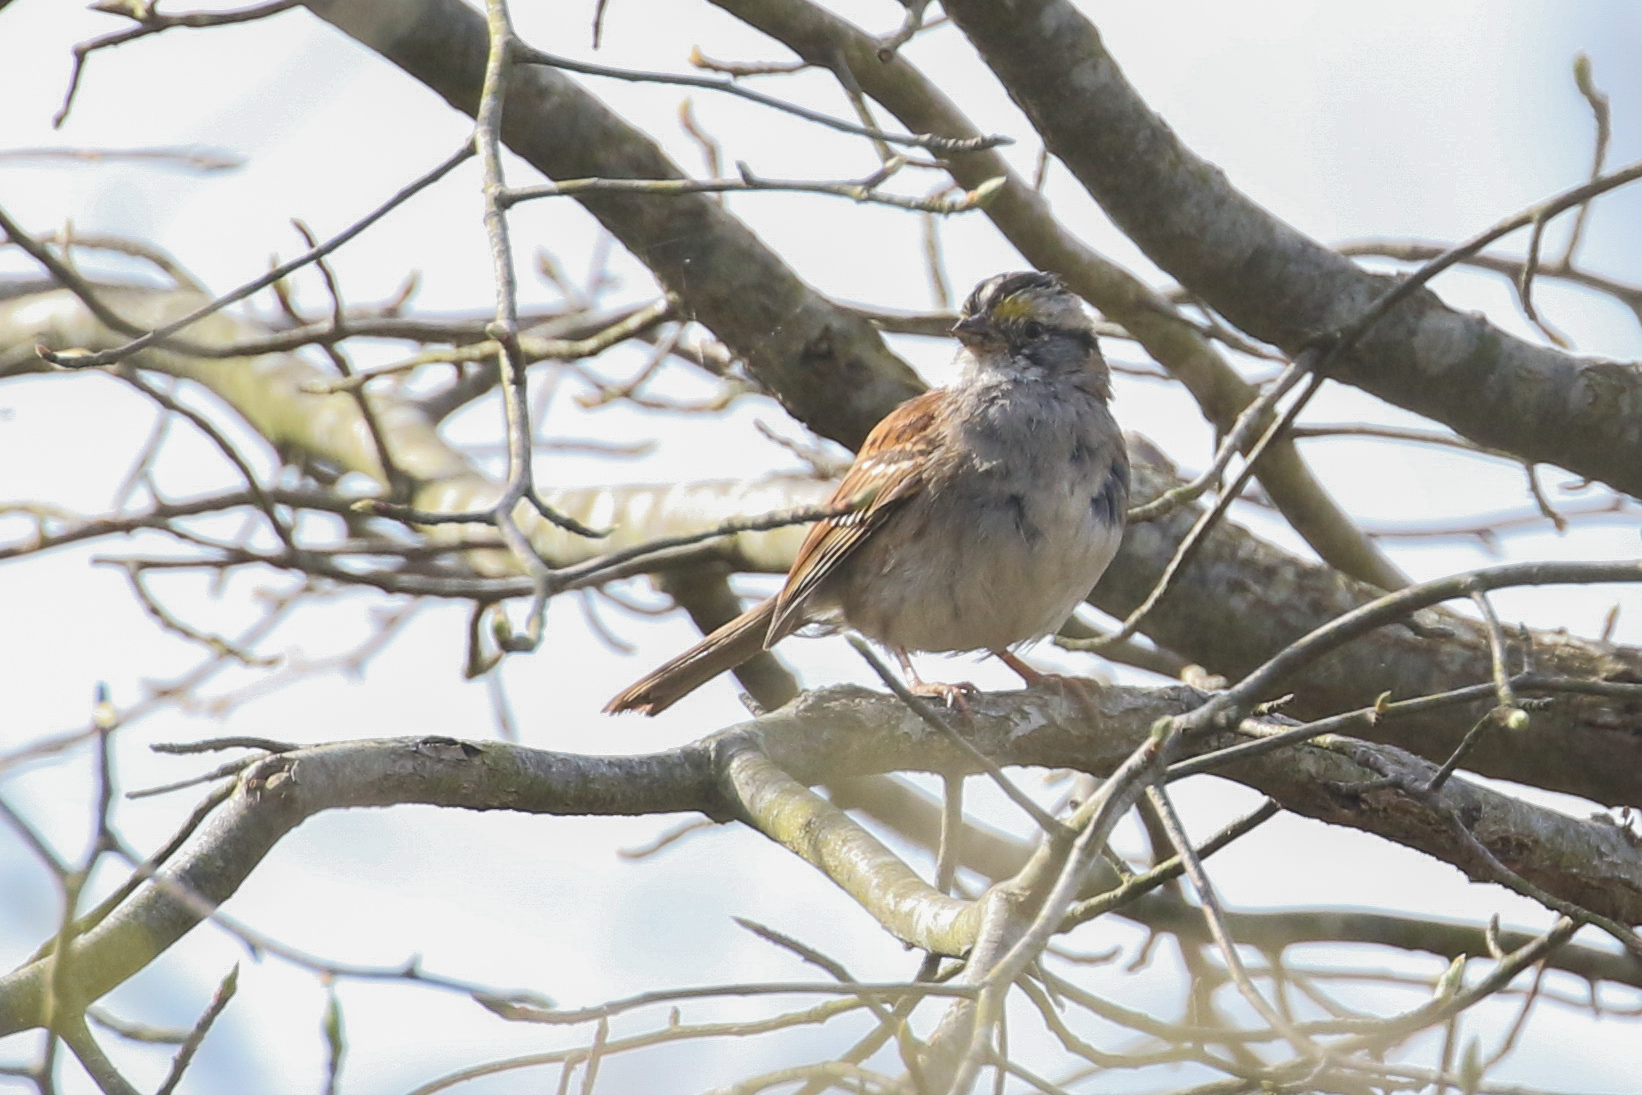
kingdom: Animalia
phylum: Chordata
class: Aves
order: Passeriformes
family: Passerellidae
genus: Zonotrichia
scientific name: Zonotrichia albicollis
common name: White-throated sparrow
